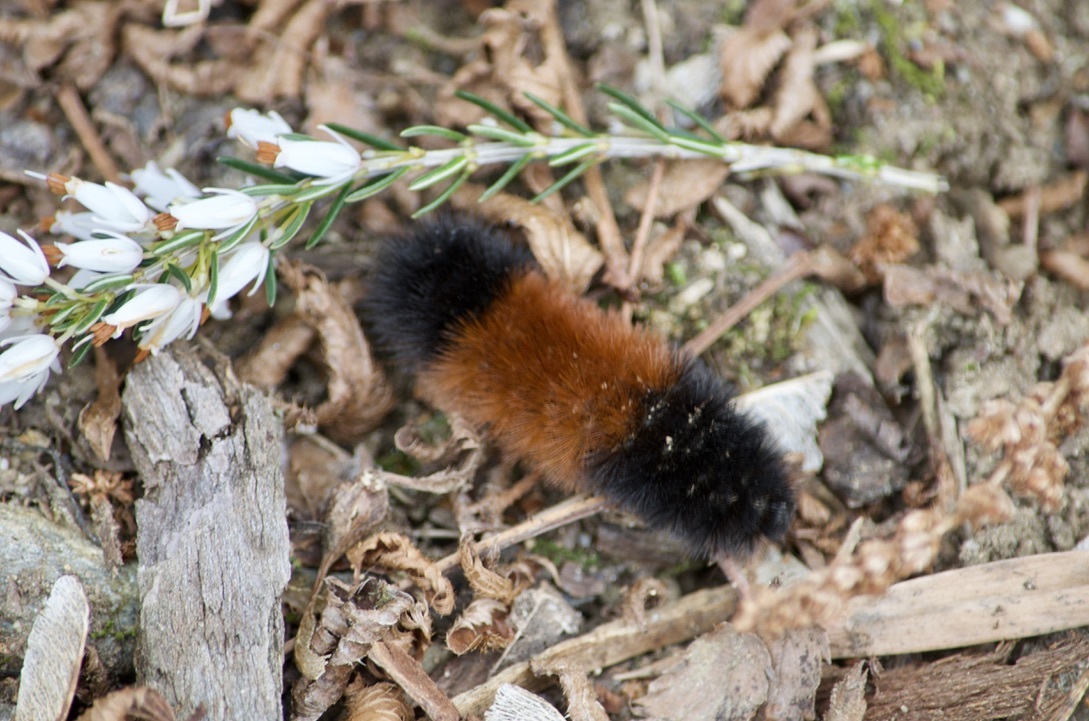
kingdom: Animalia
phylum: Arthropoda
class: Insecta
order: Lepidoptera
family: Erebidae
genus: Pyrrharctia
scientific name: Pyrrharctia isabella
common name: Isabella tiger moth
